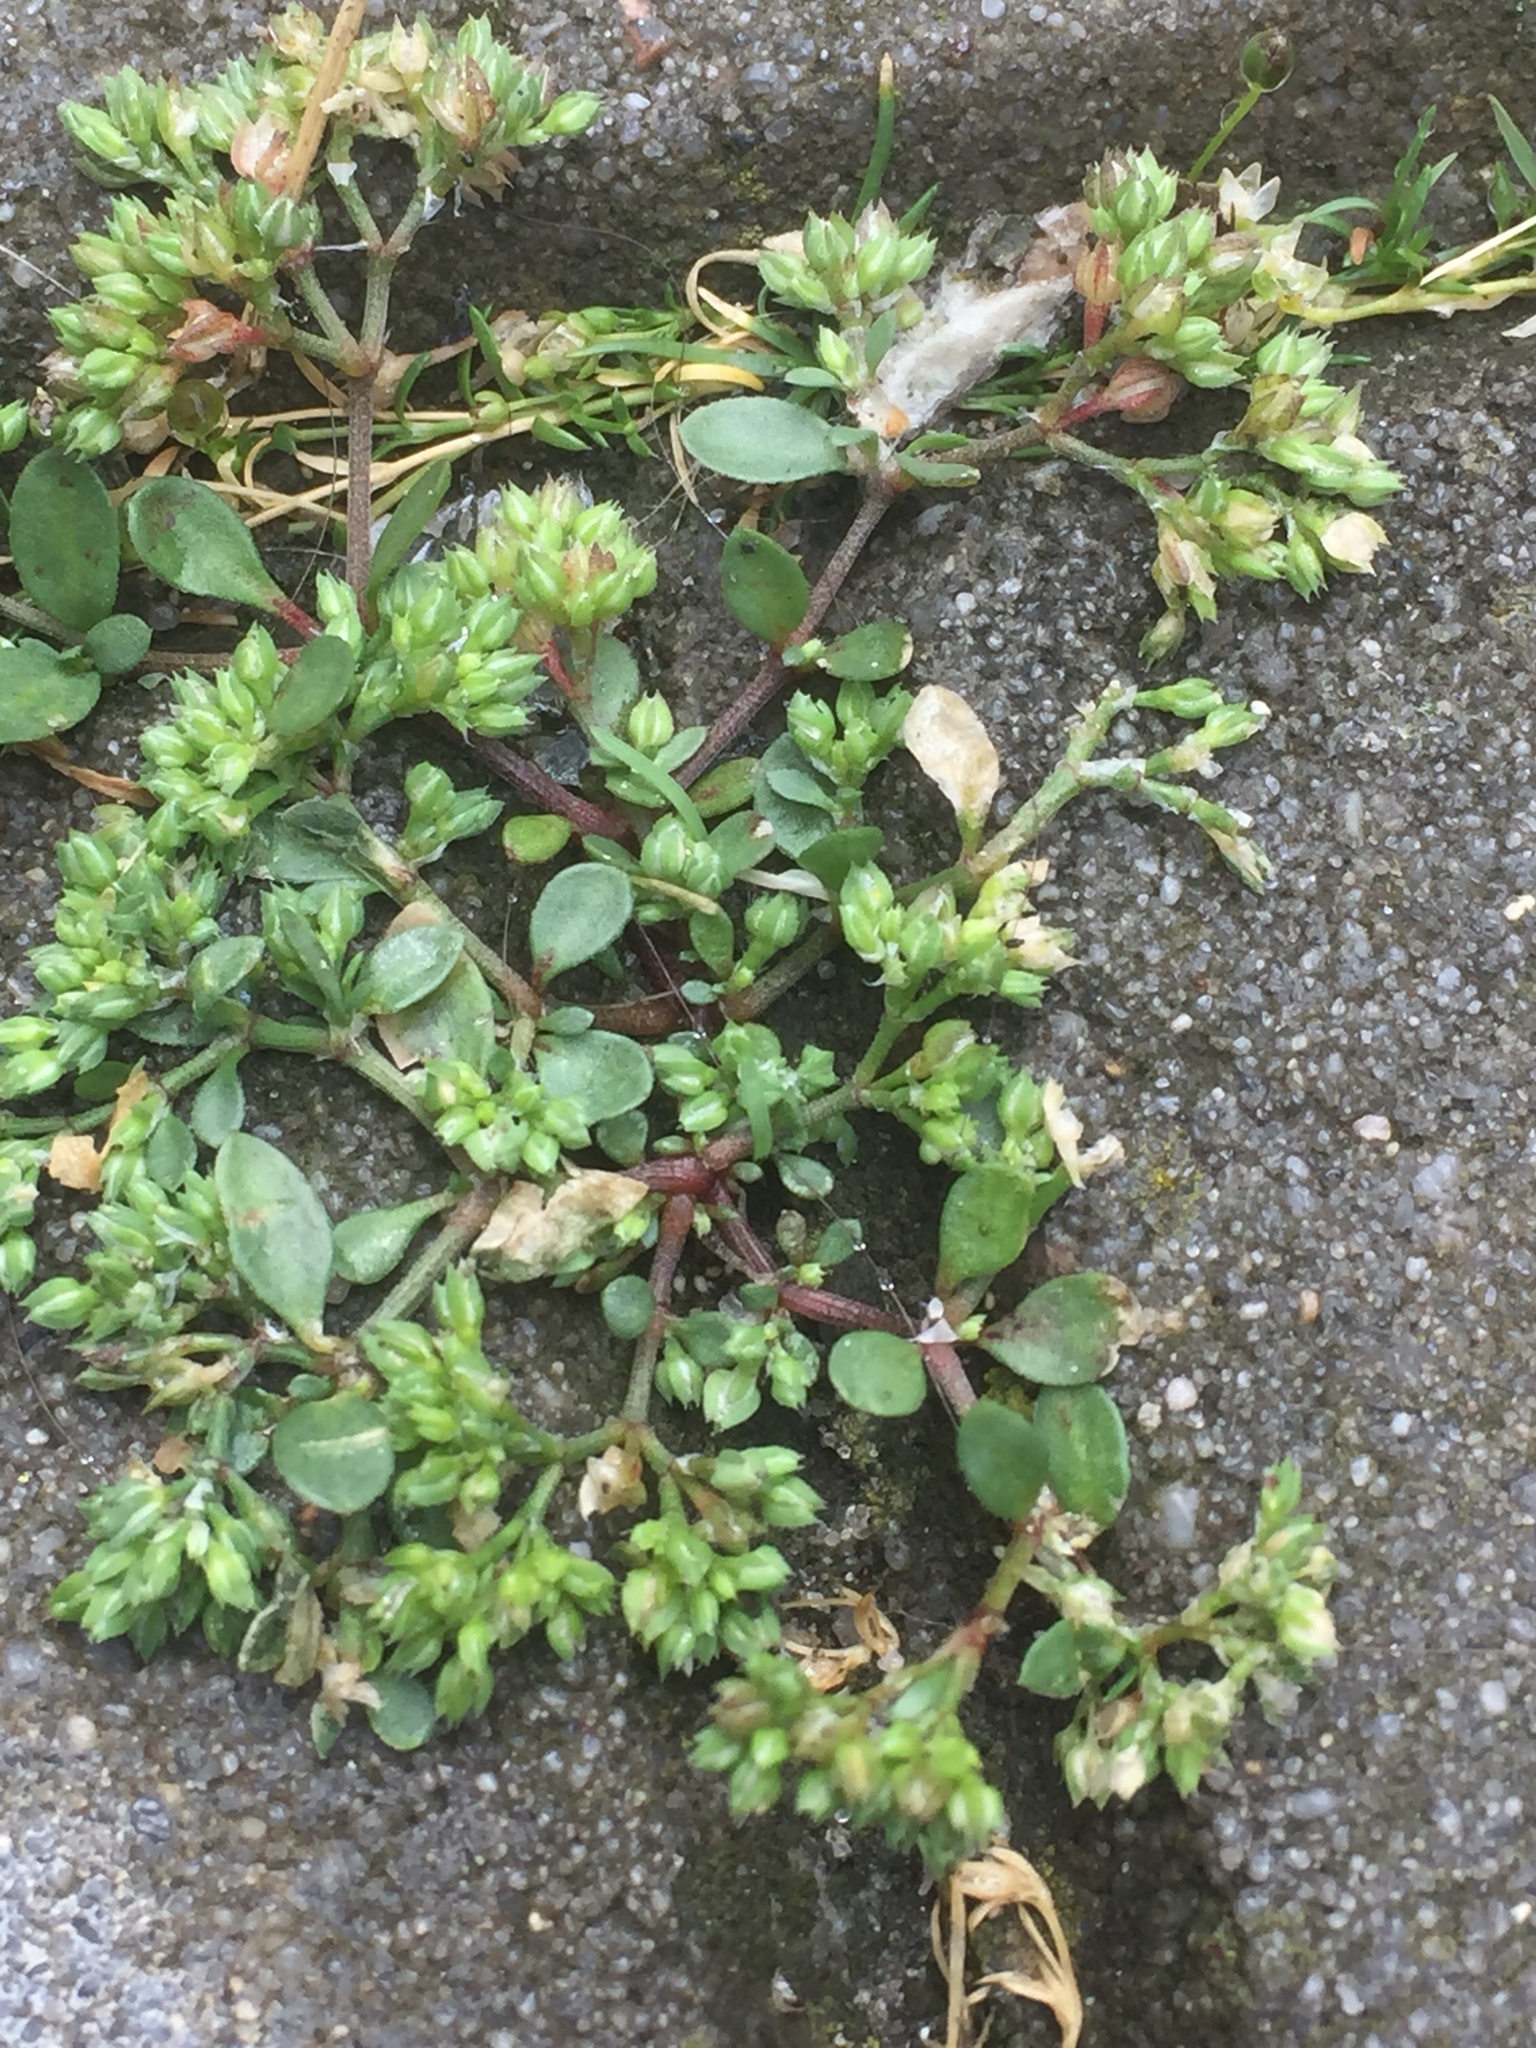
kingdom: Plantae
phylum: Tracheophyta
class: Magnoliopsida
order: Caryophyllales
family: Caryophyllaceae
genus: Polycarpon
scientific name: Polycarpon tetraphyllum
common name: Four-leaved all-seed
